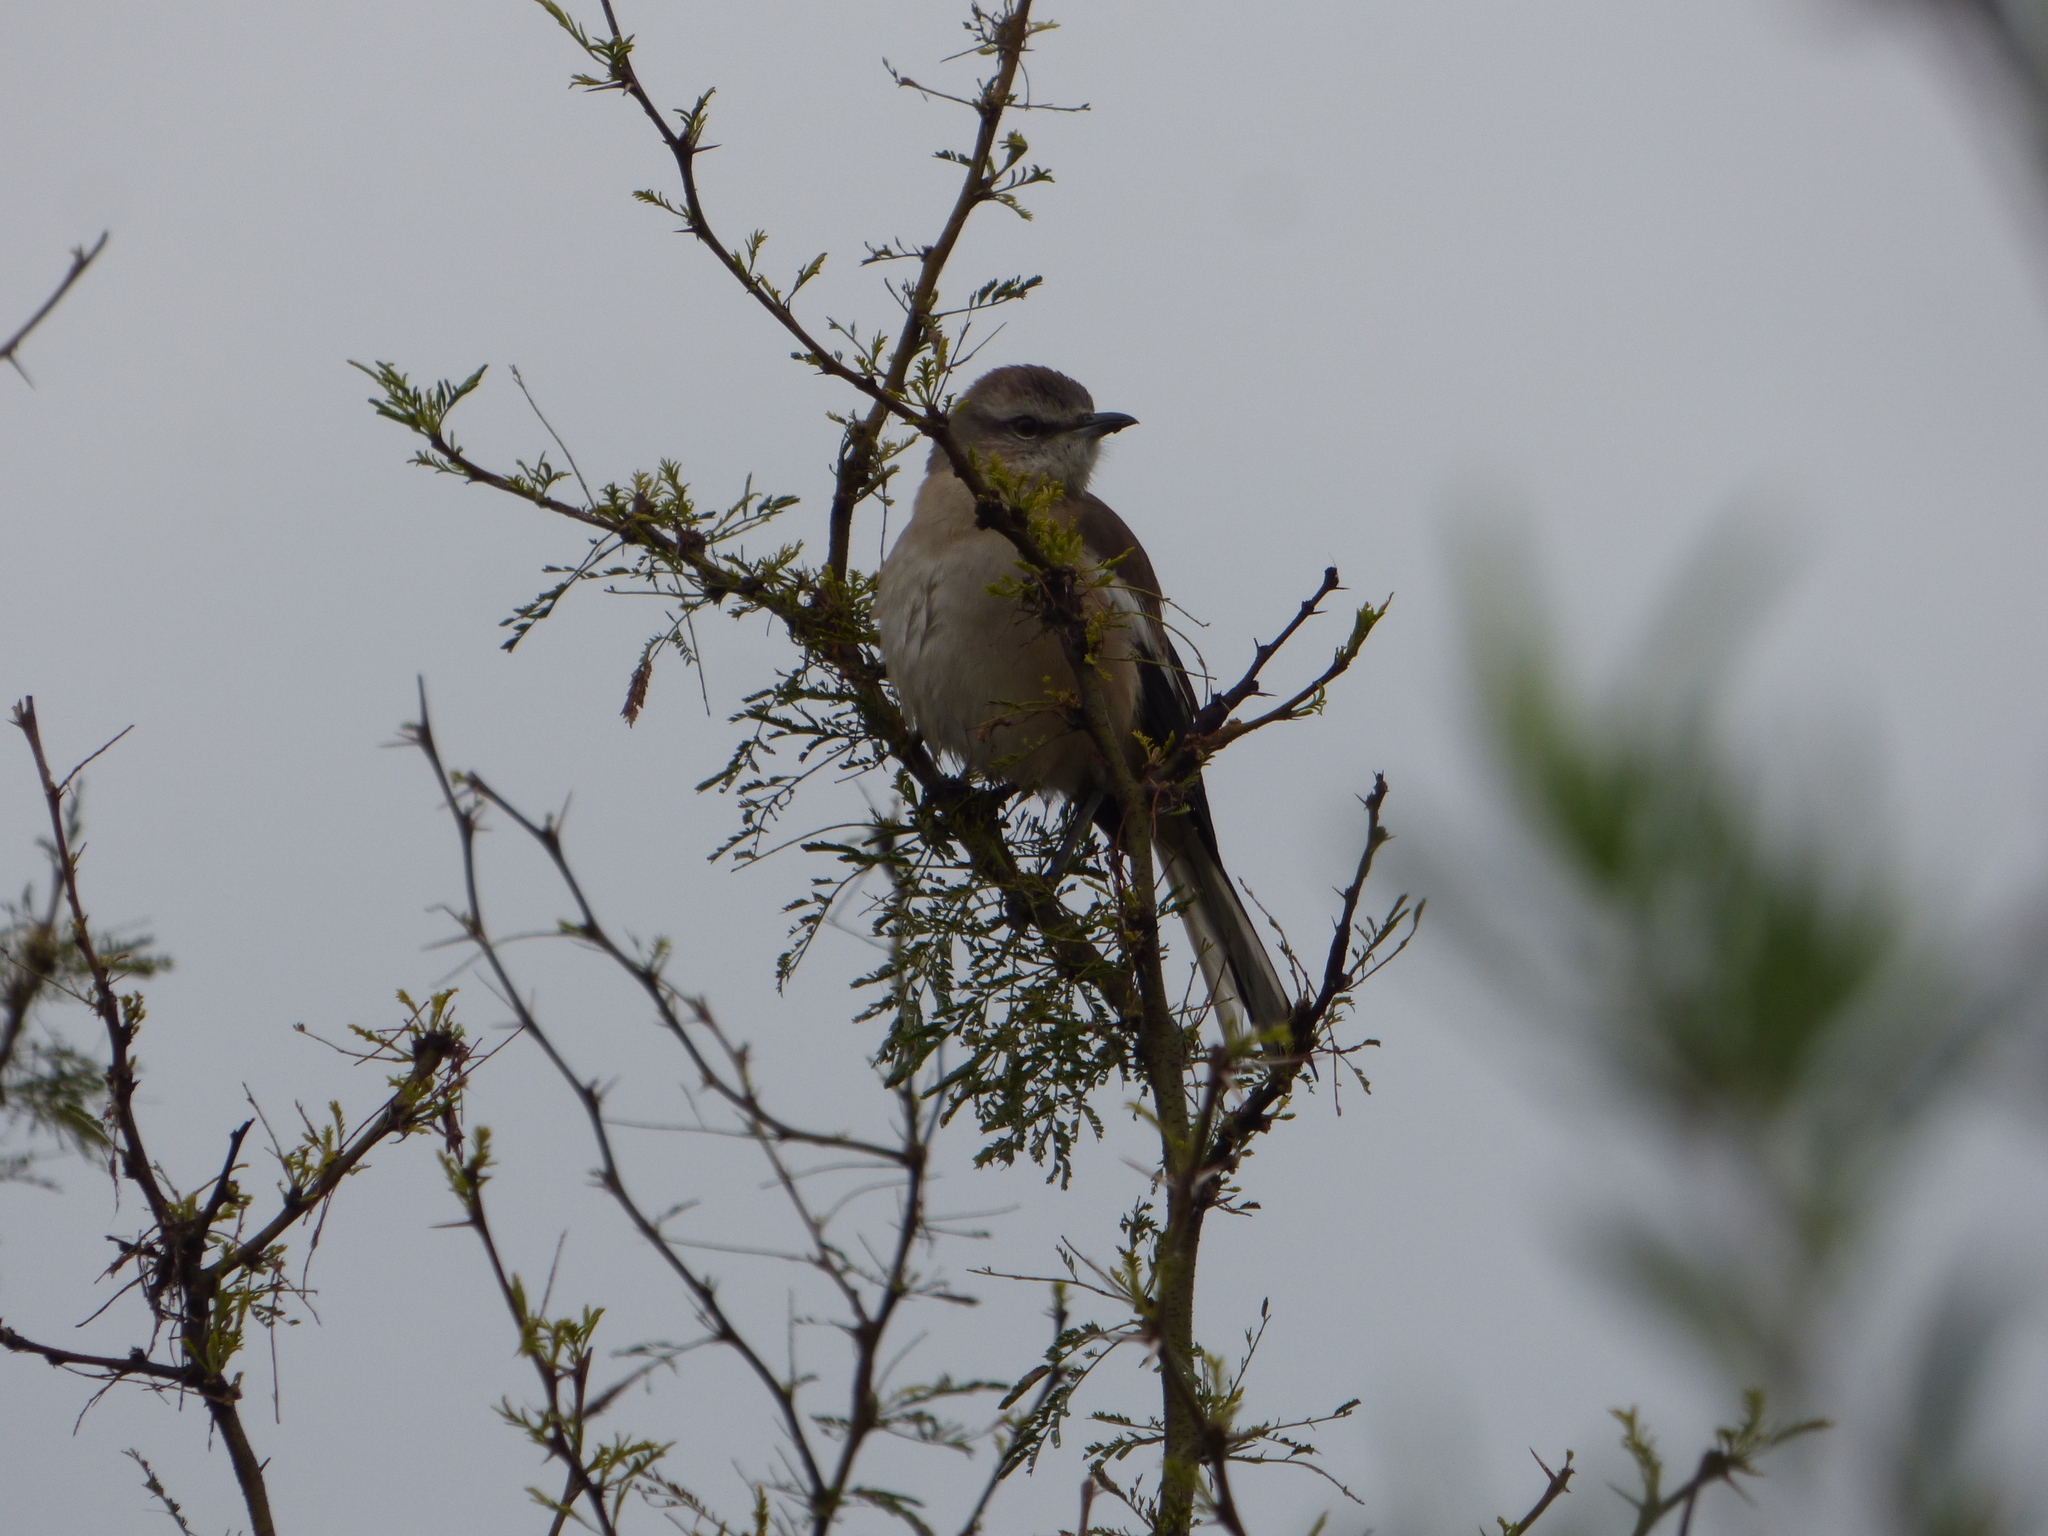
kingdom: Animalia
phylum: Chordata
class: Aves
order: Passeriformes
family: Mimidae
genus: Mimus
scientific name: Mimus triurus
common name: White-banded mockingbird
